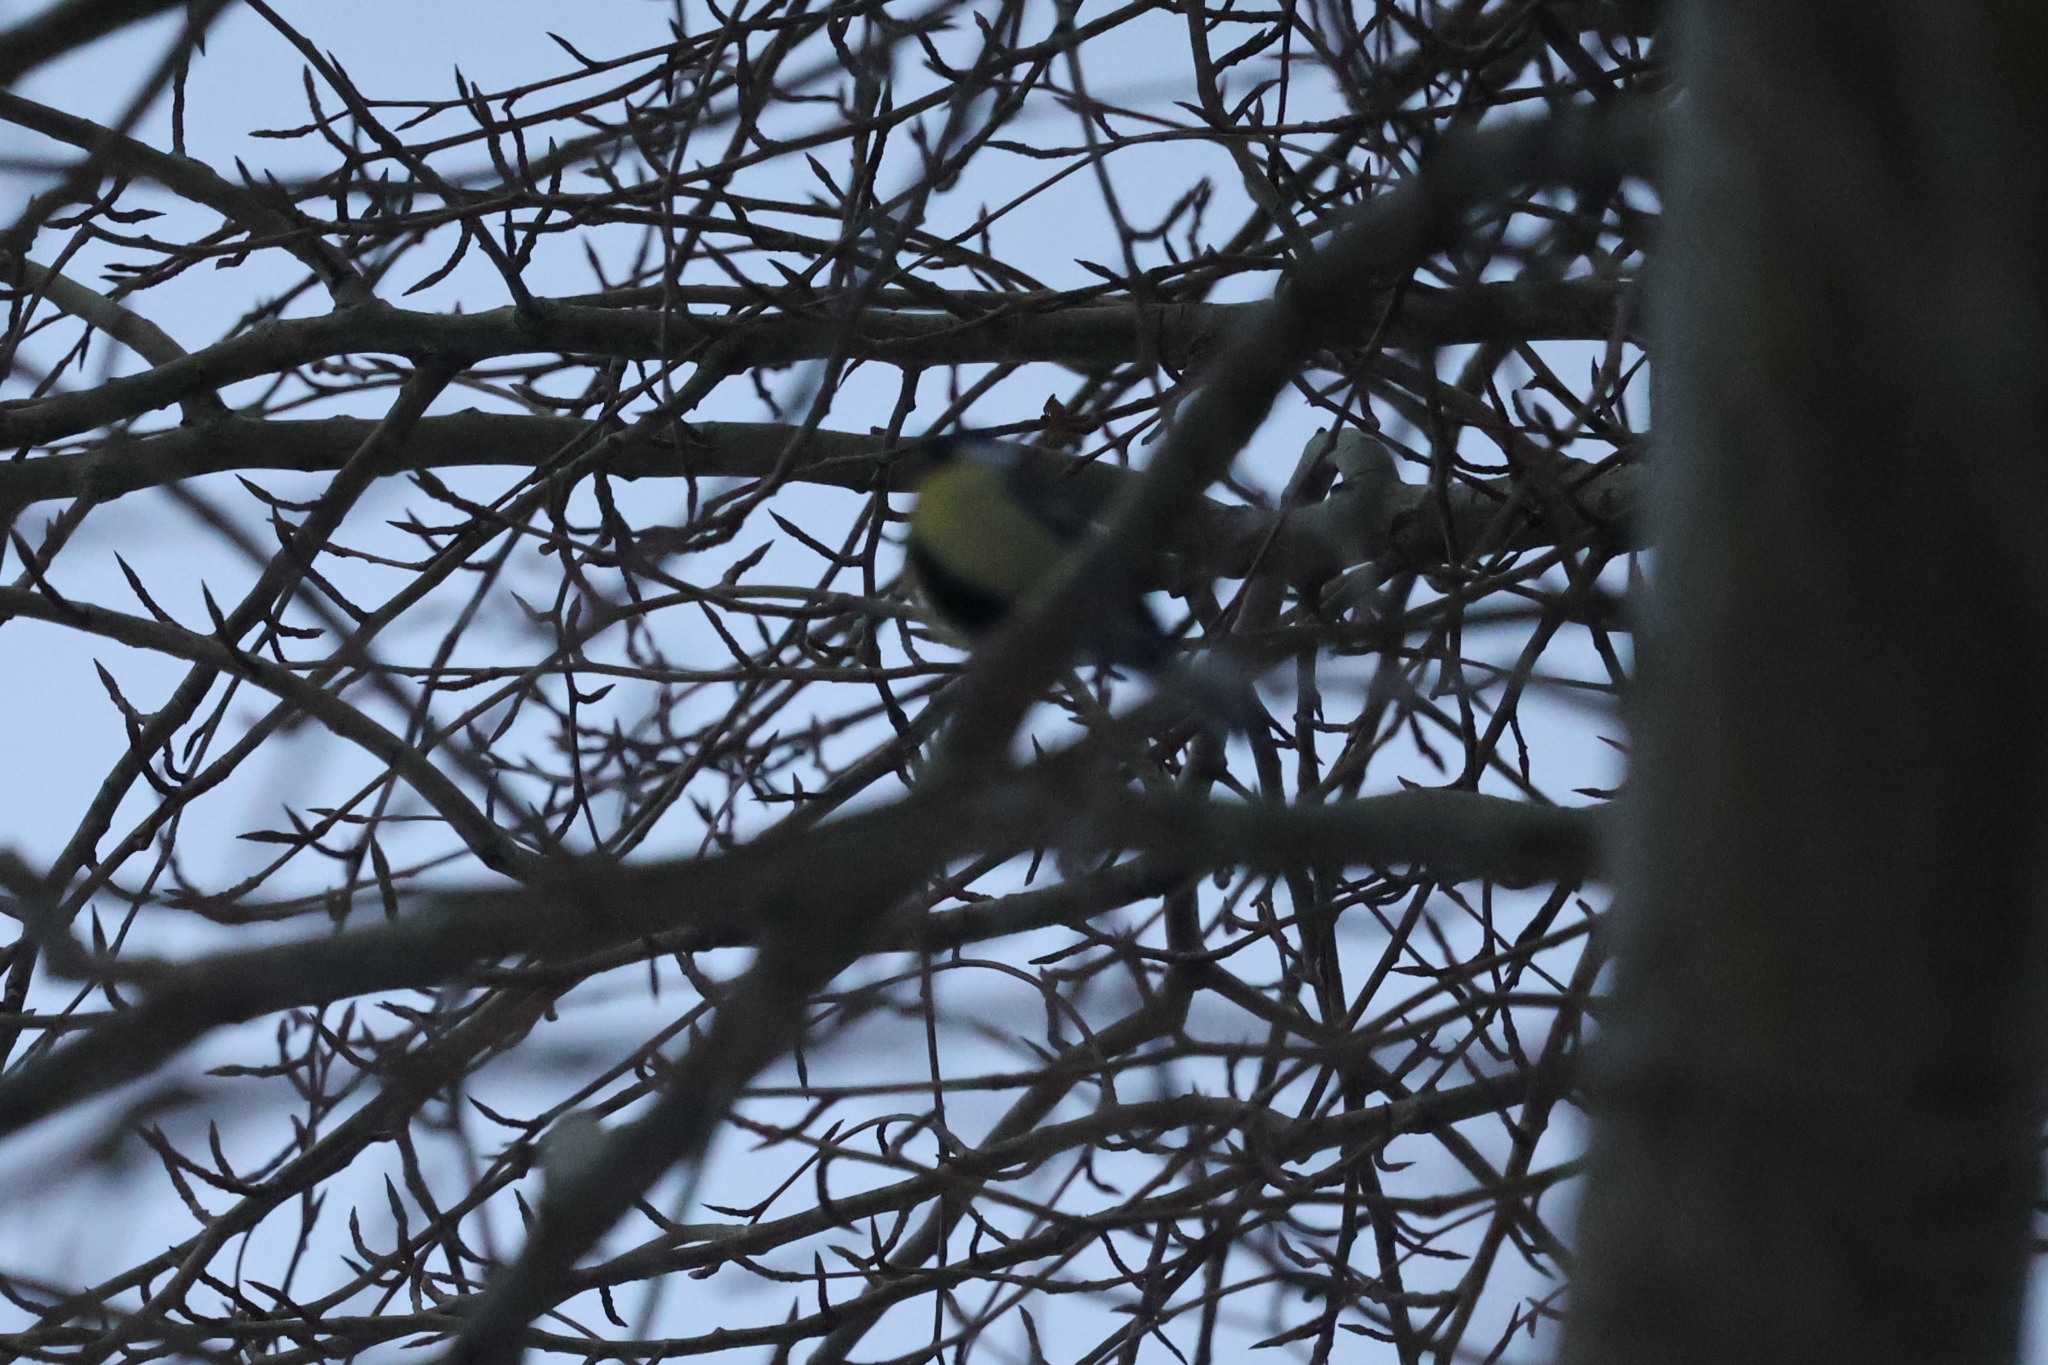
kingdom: Animalia
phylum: Chordata
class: Aves
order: Passeriformes
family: Paridae
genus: Parus
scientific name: Parus major
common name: Great tit
